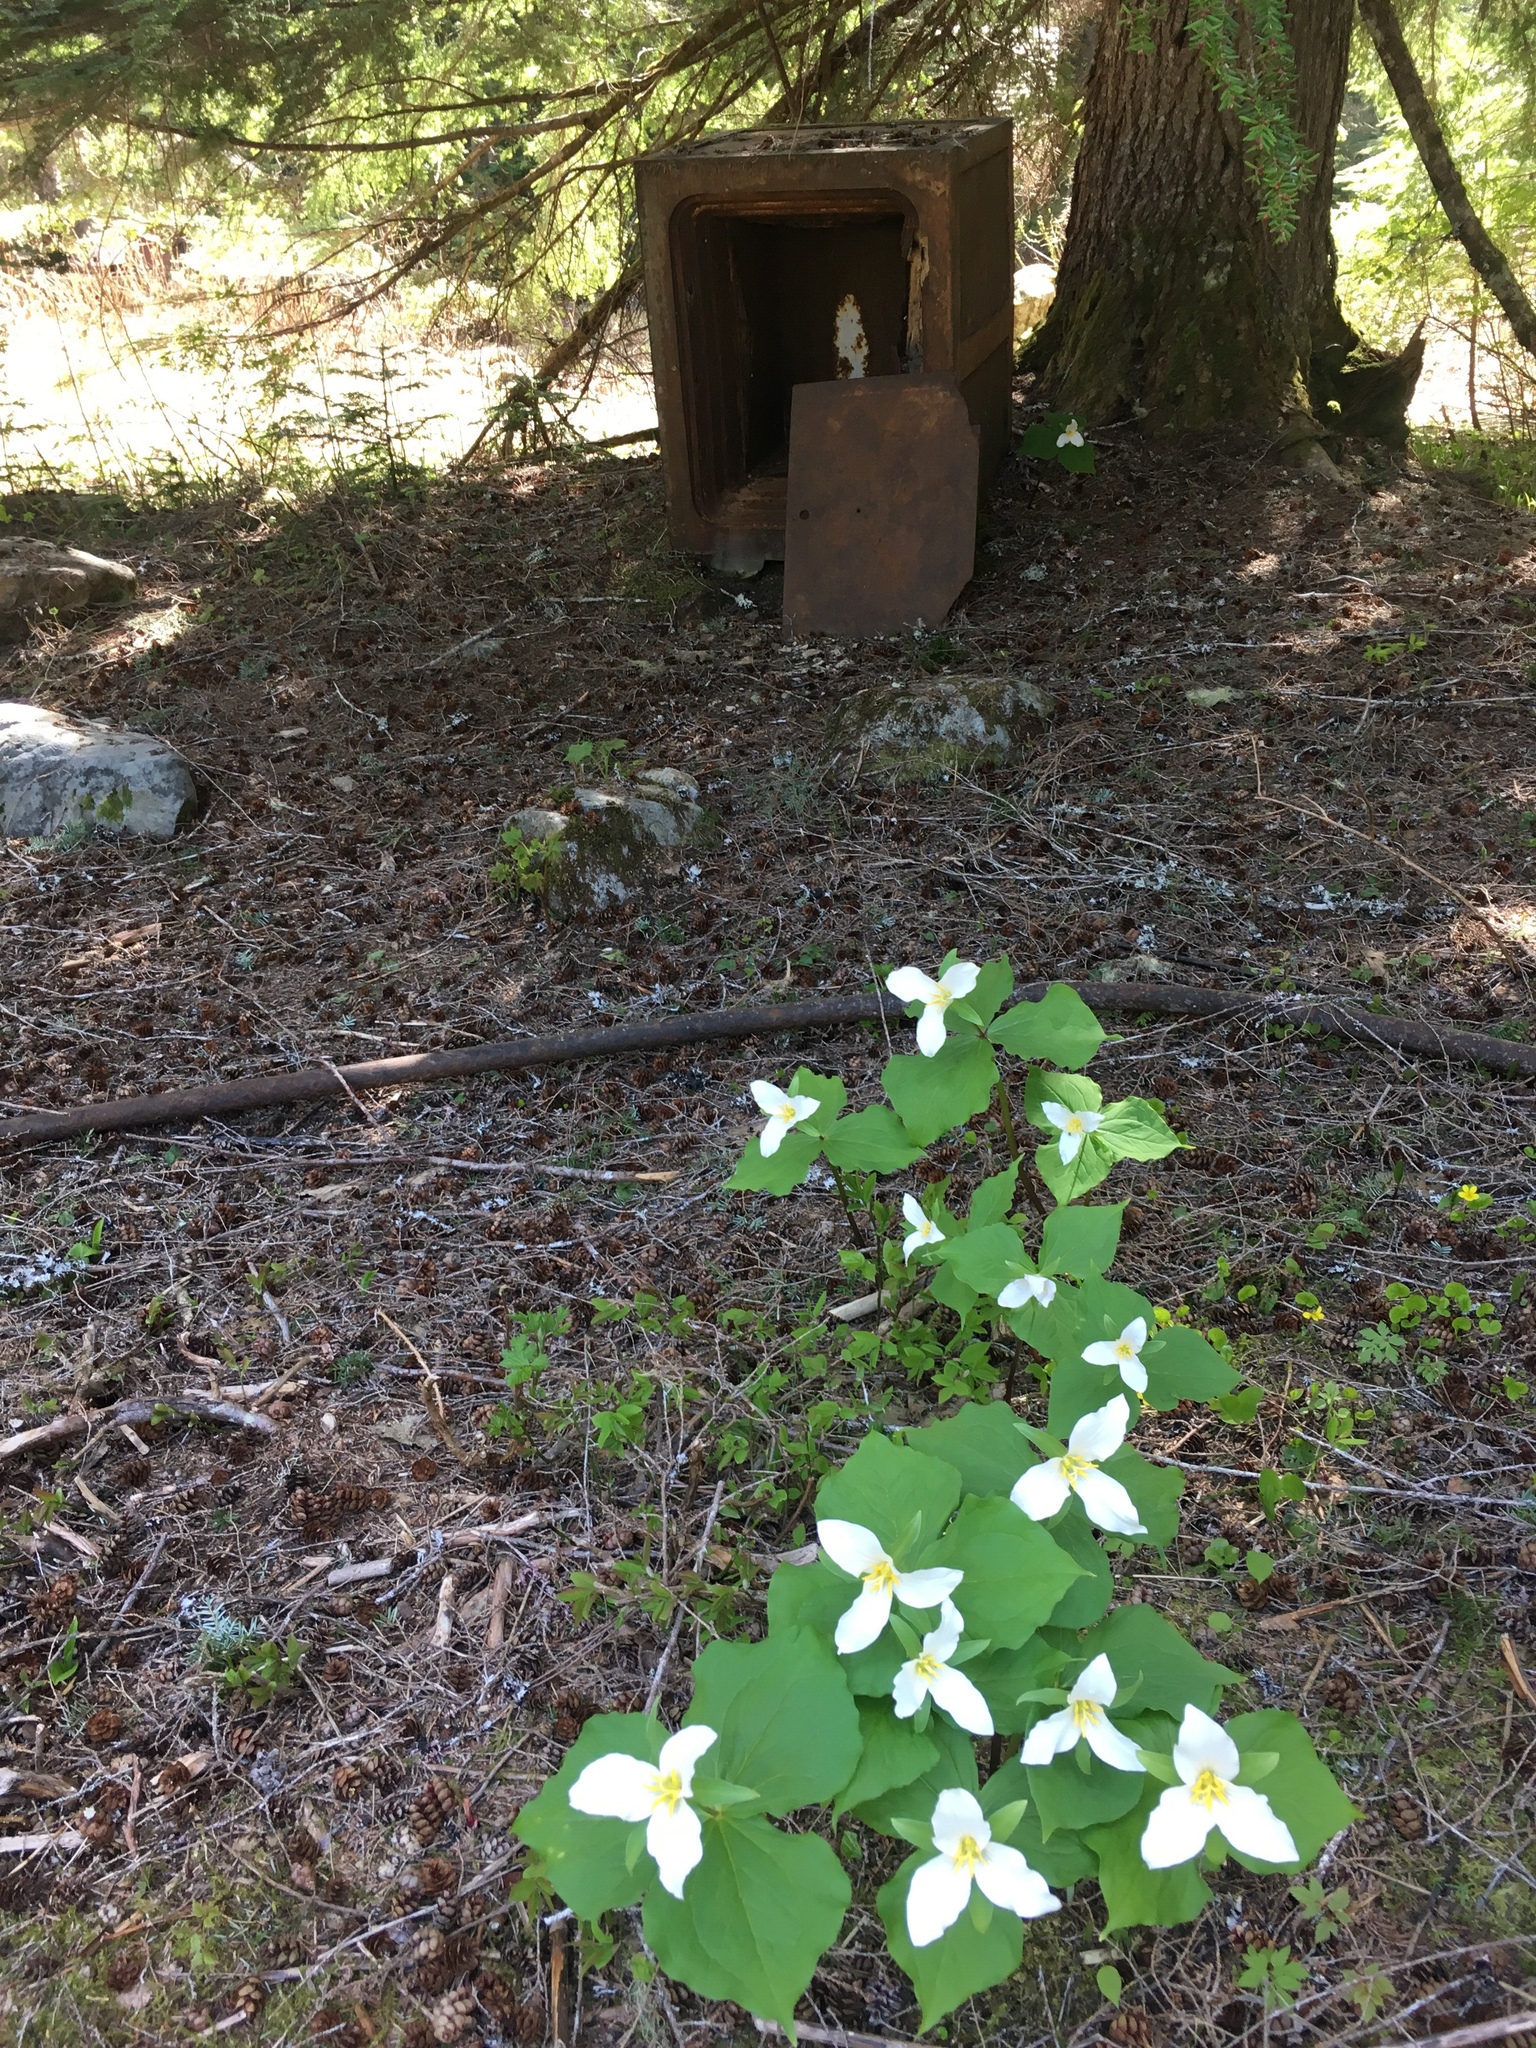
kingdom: Plantae
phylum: Tracheophyta
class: Liliopsida
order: Liliales
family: Melanthiaceae
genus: Trillium
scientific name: Trillium ovatum
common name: Pacific trillium
